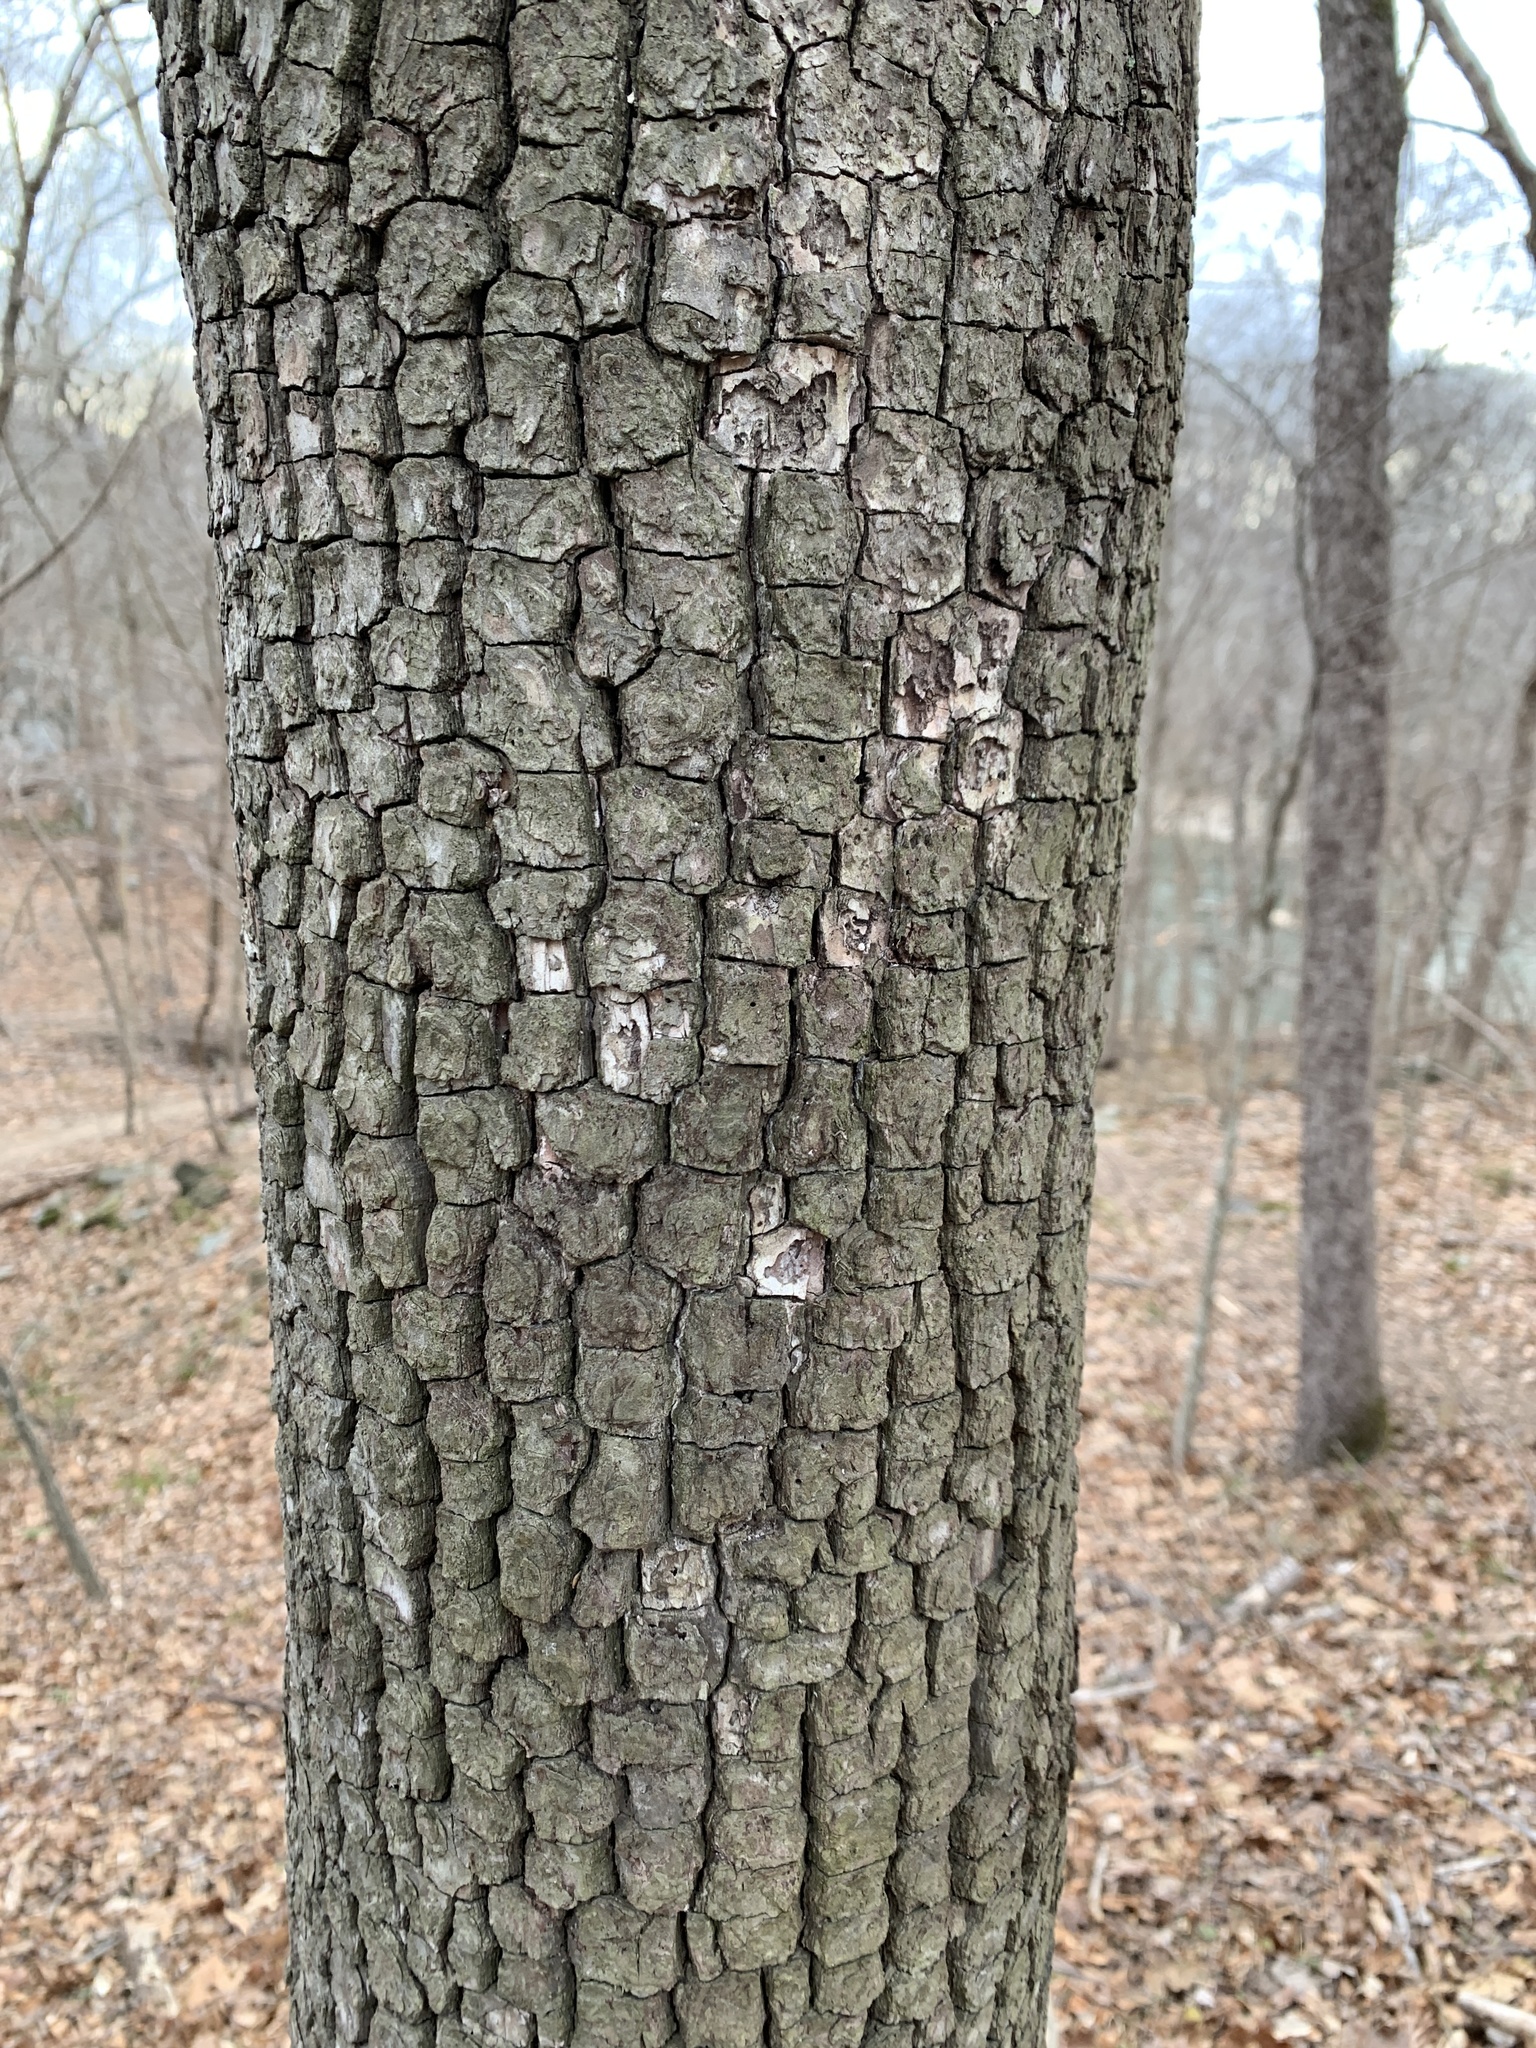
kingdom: Plantae
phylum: Tracheophyta
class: Magnoliopsida
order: Ericales
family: Ebenaceae
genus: Diospyros
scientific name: Diospyros virginiana
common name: Persimmon
